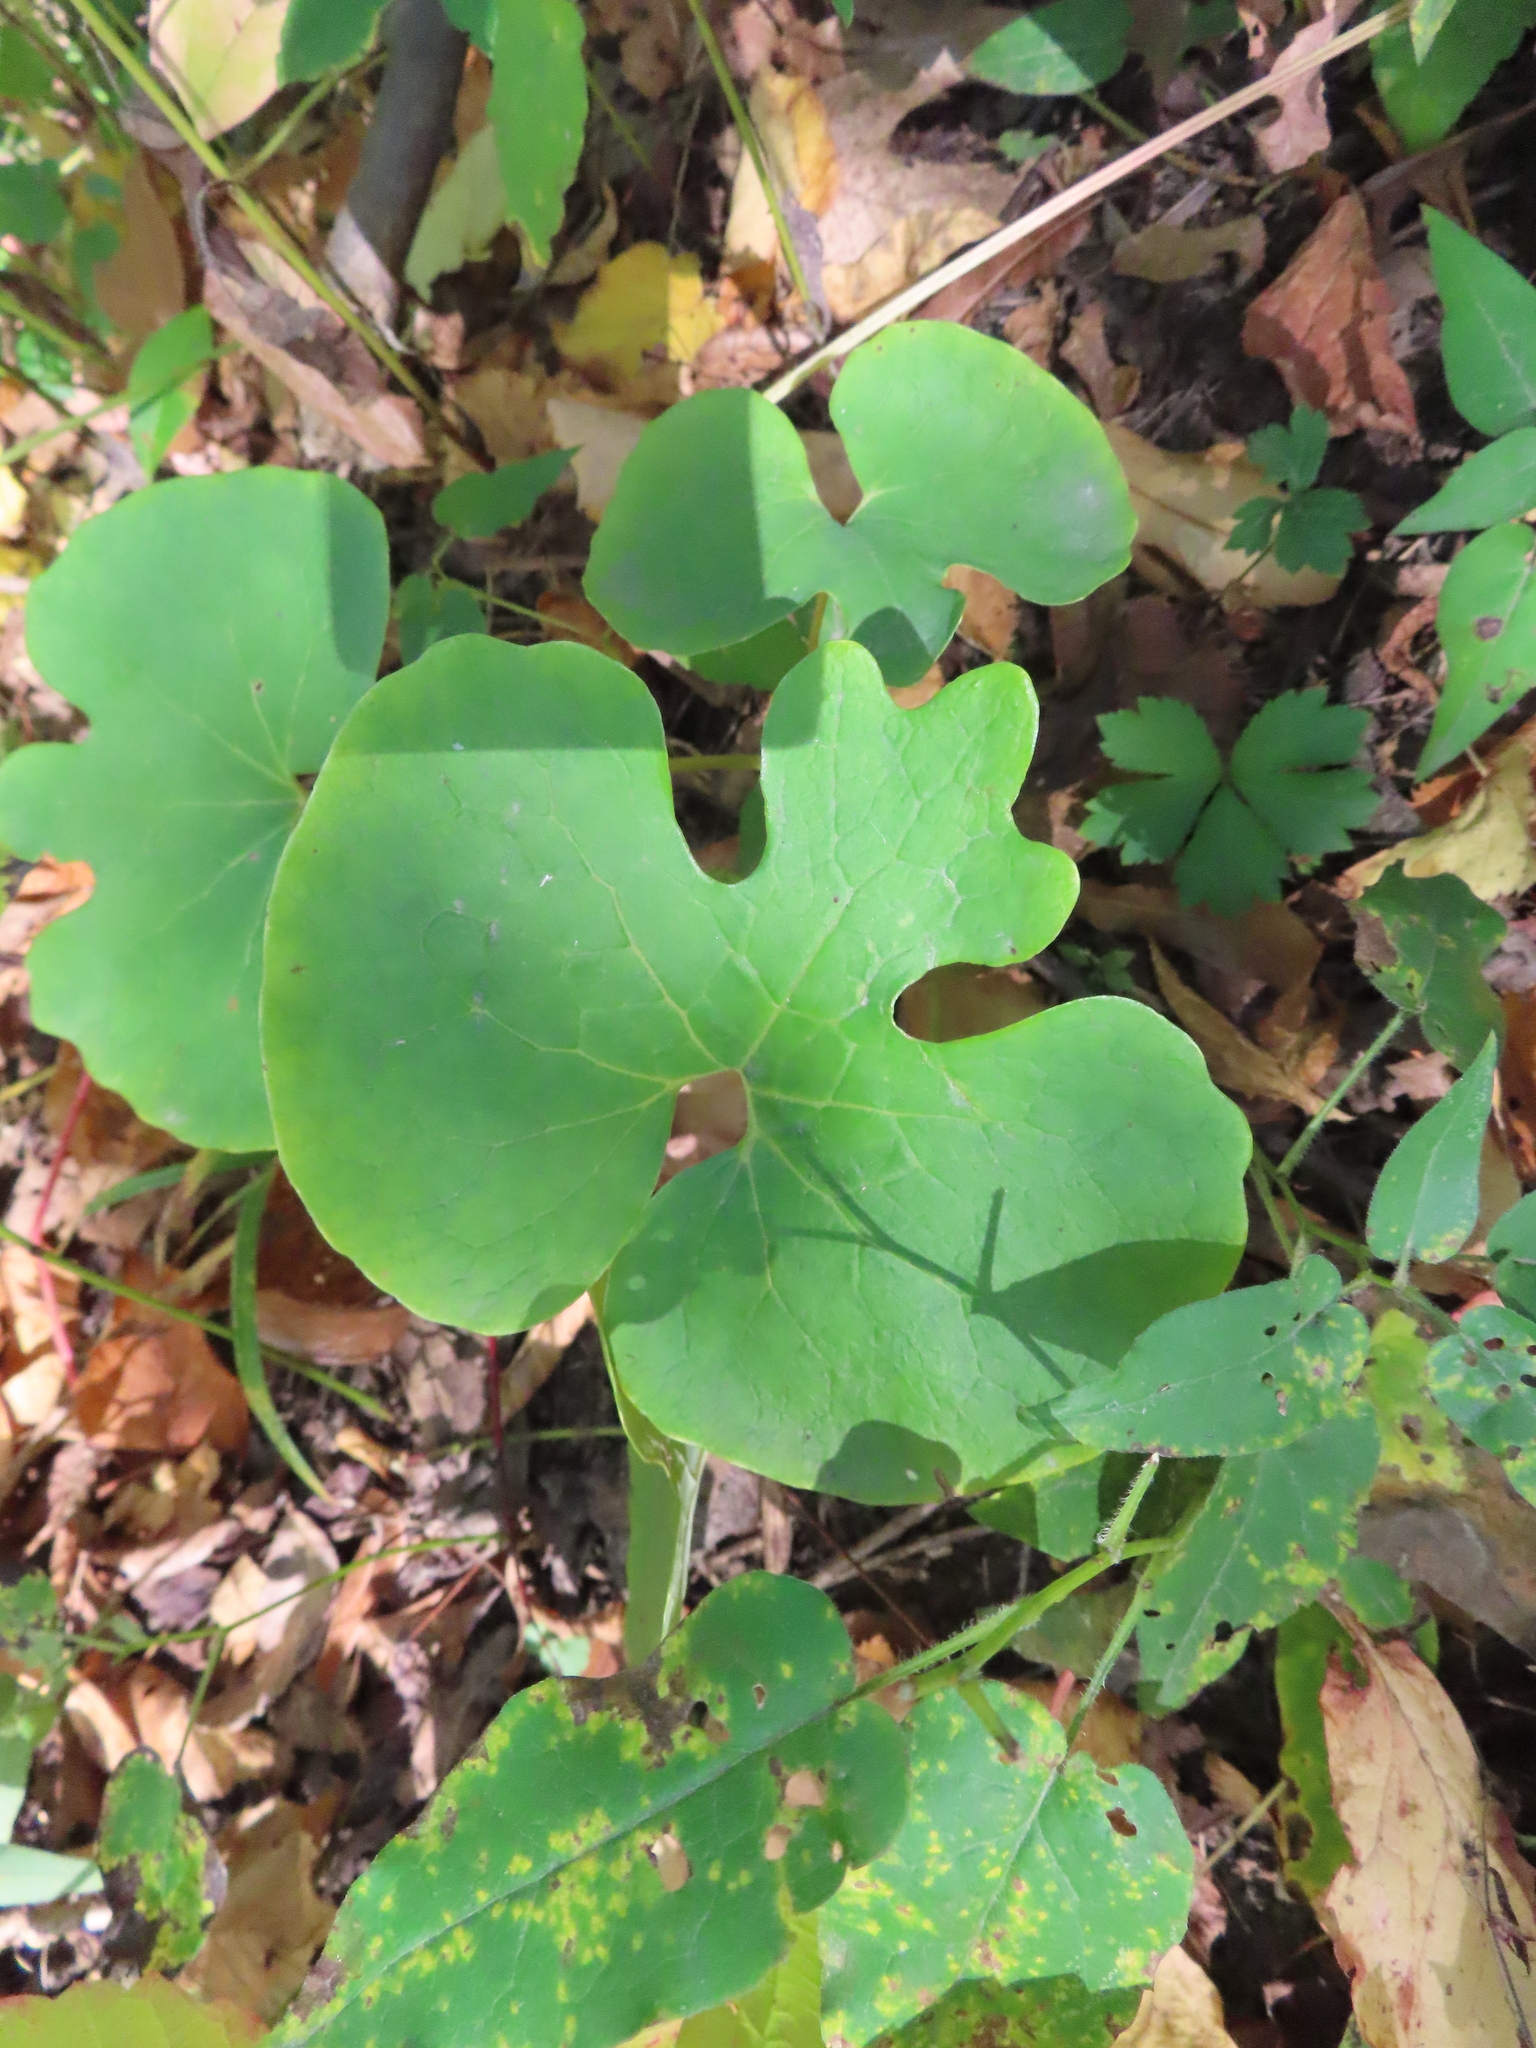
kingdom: Plantae
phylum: Tracheophyta
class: Magnoliopsida
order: Ranunculales
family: Papaveraceae
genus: Sanguinaria
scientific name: Sanguinaria canadensis
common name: Bloodroot
